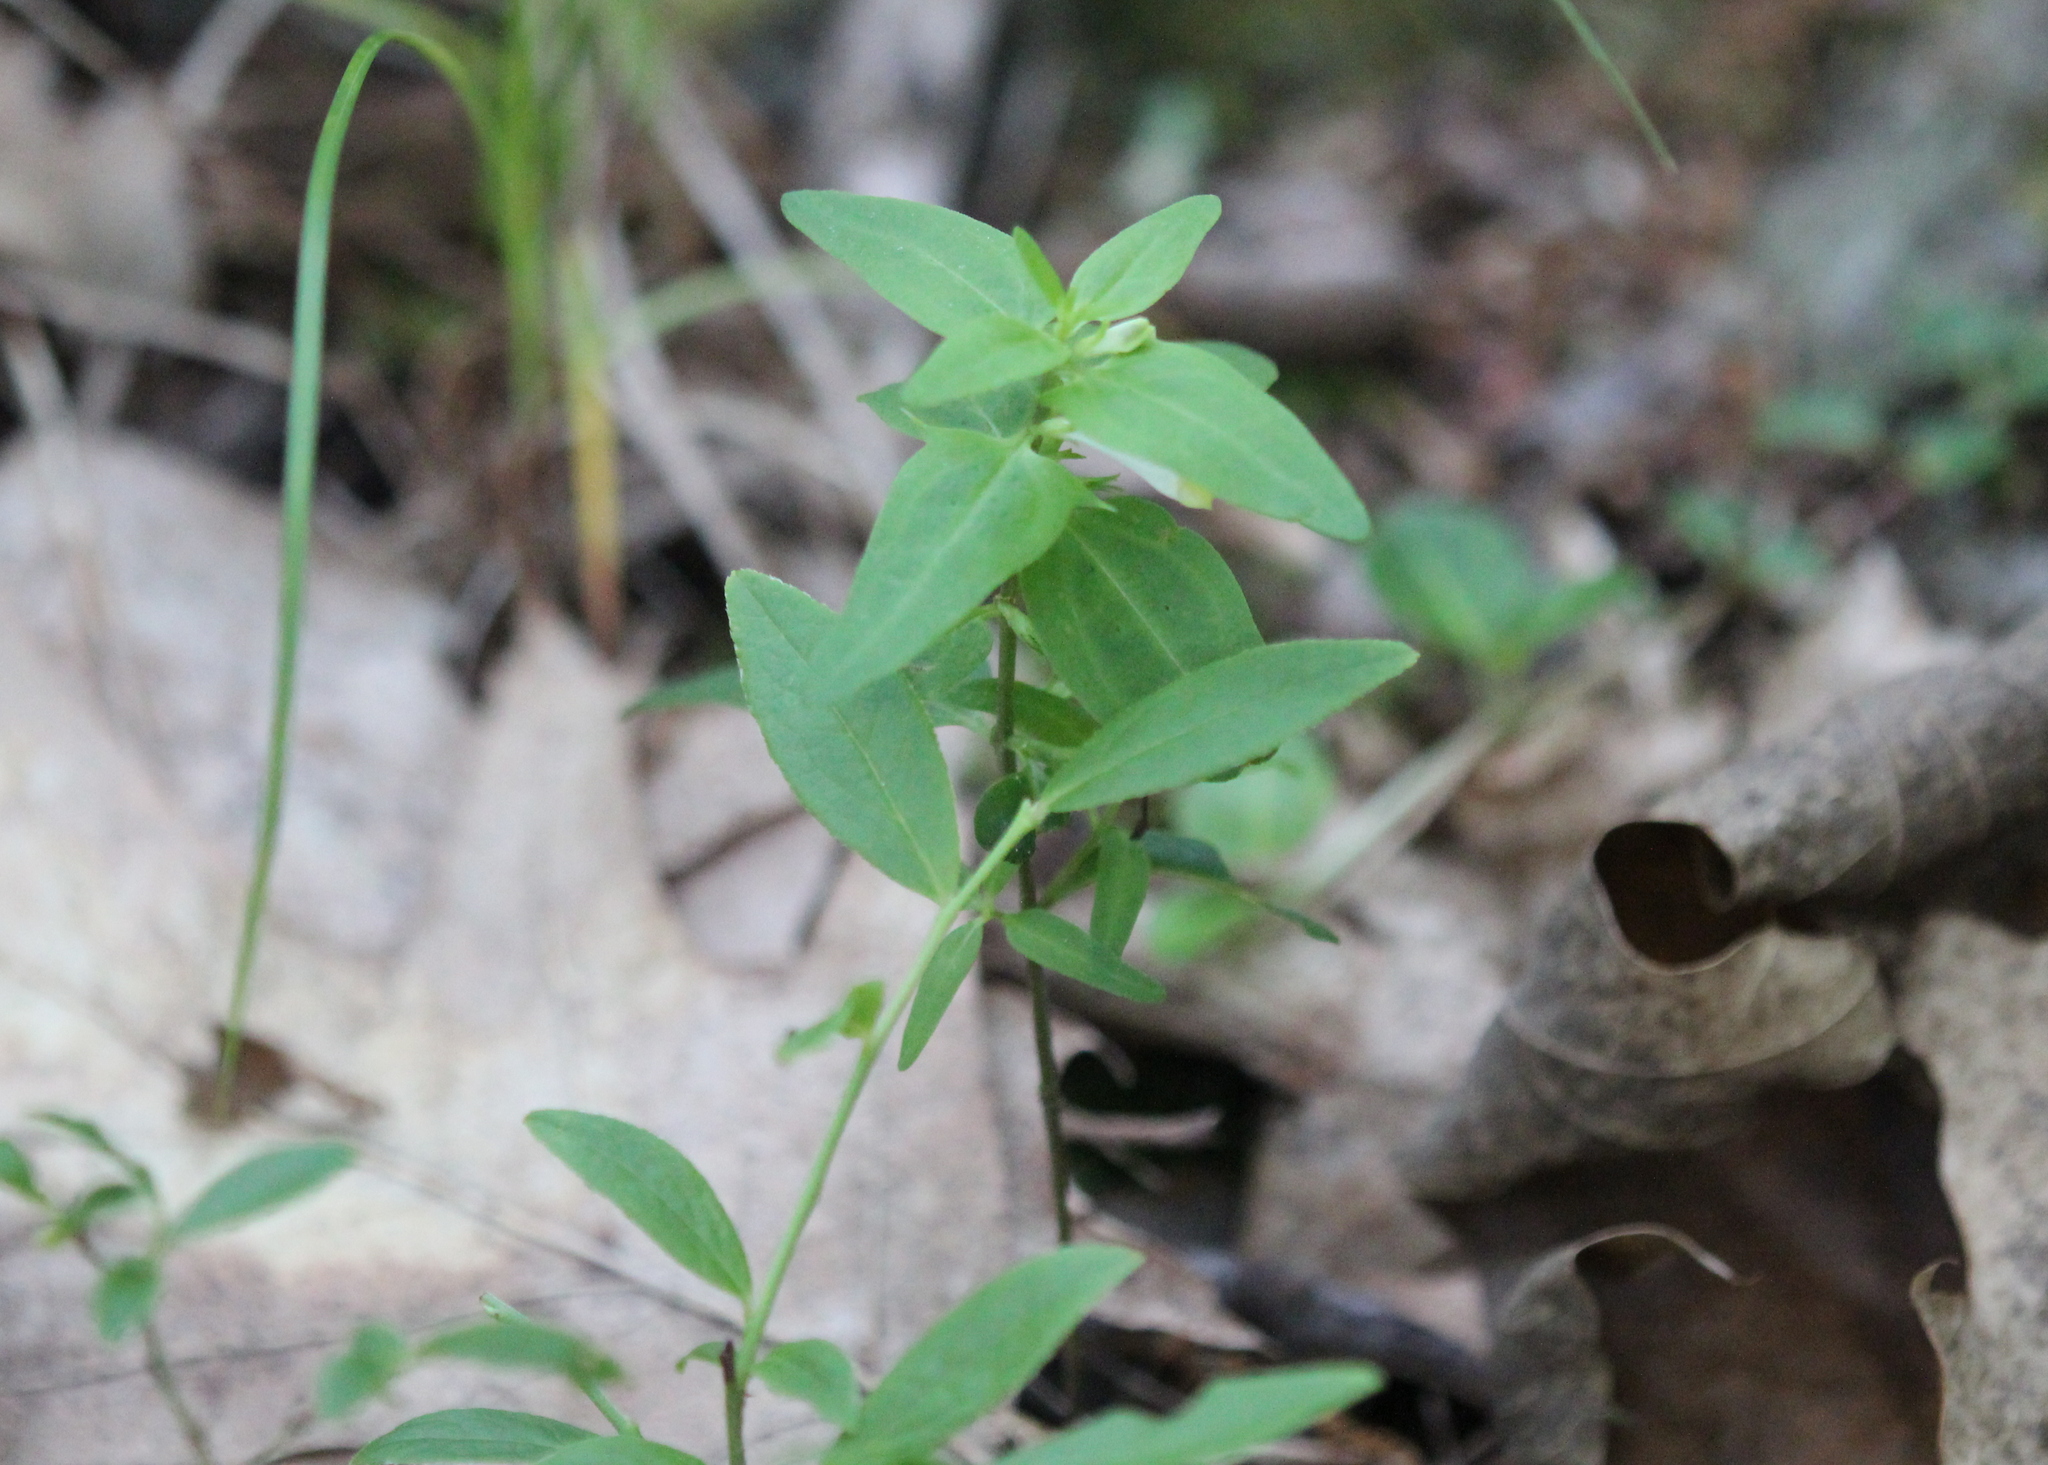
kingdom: Plantae
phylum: Tracheophyta
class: Magnoliopsida
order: Lamiales
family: Orobanchaceae
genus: Melampyrum
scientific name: Melampyrum lineare
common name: American cow-wheat
